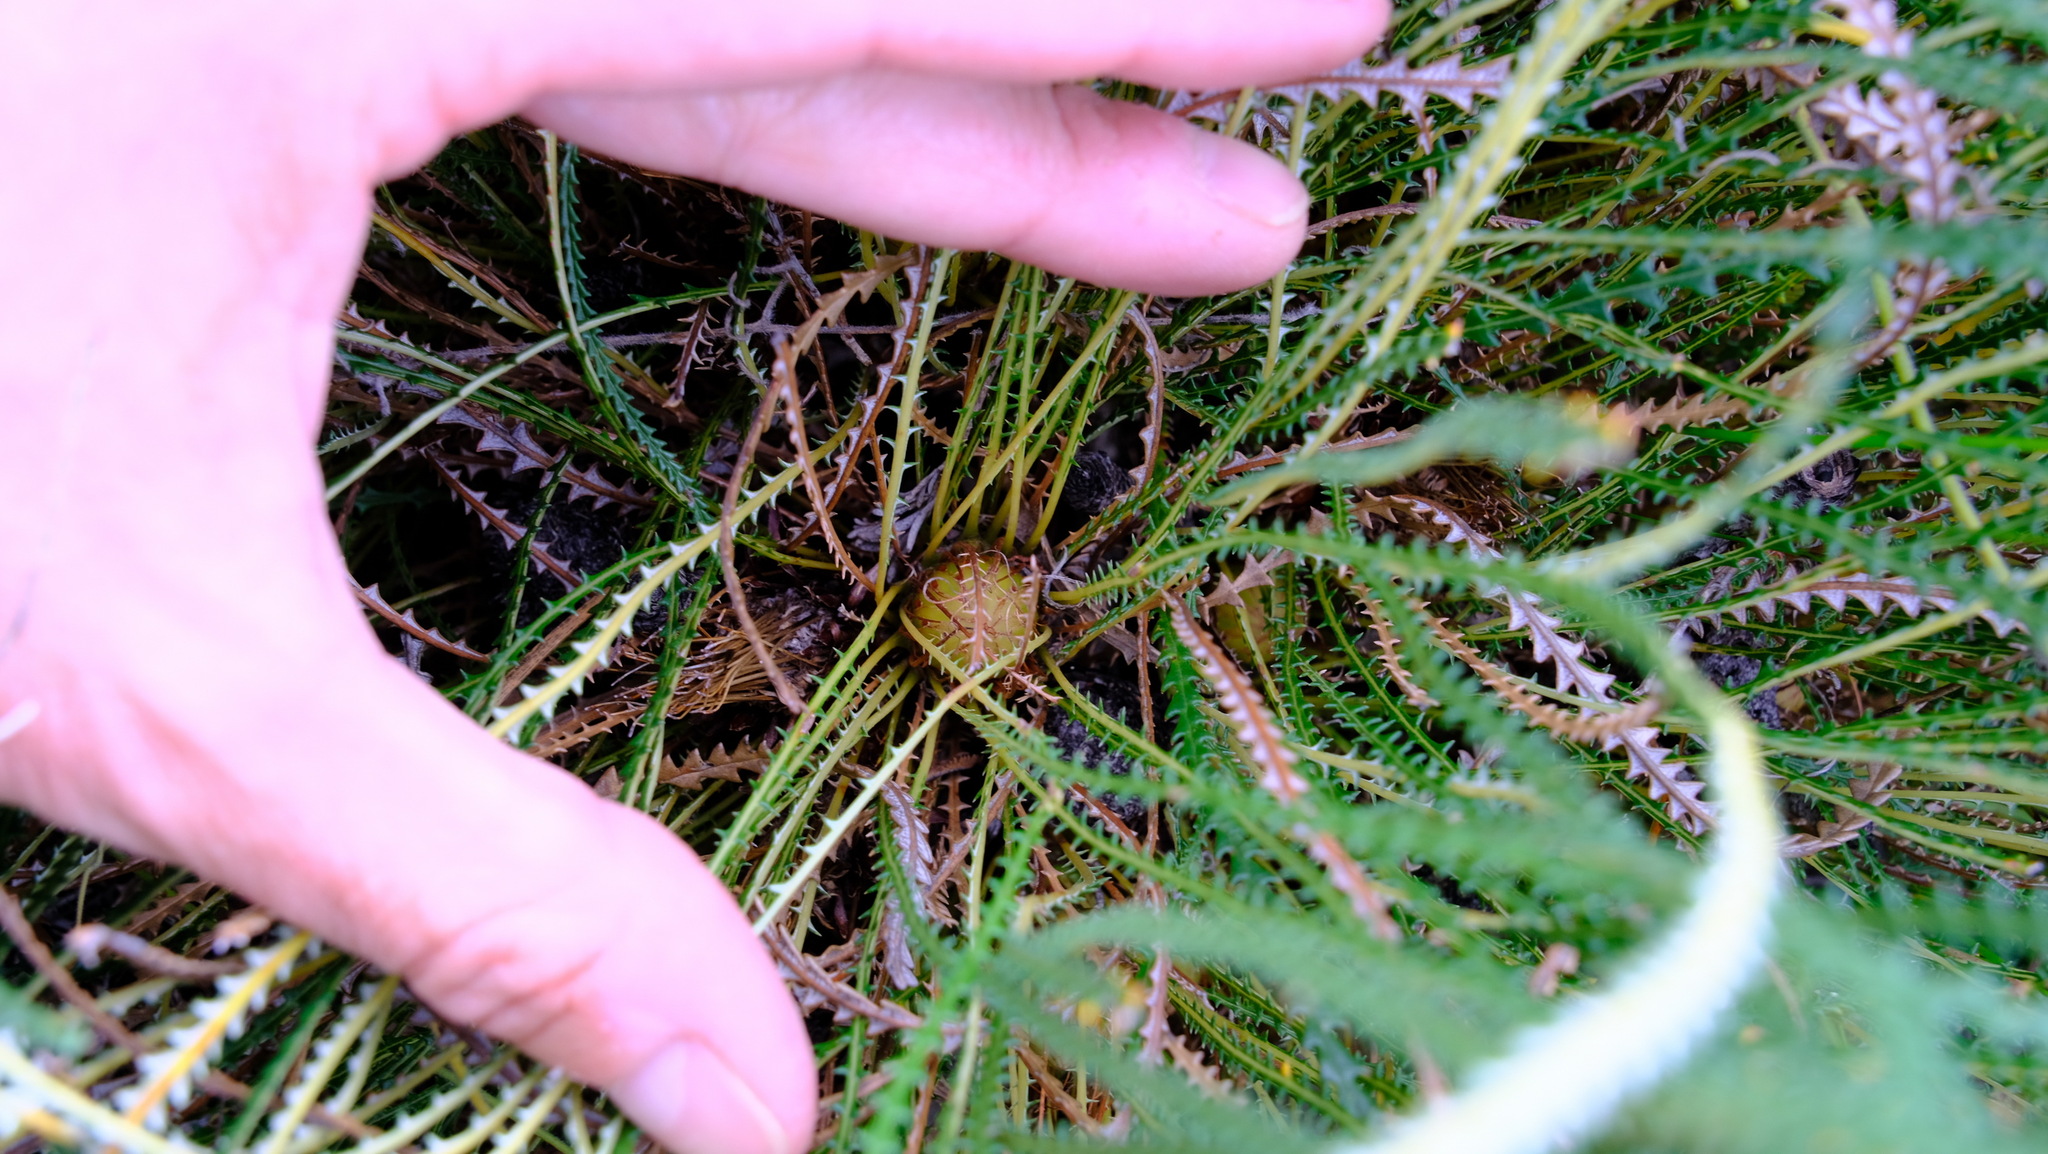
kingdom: Plantae
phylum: Tracheophyta
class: Magnoliopsida
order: Proteales
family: Proteaceae
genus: Banksia
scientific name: Banksia dallanneyi
